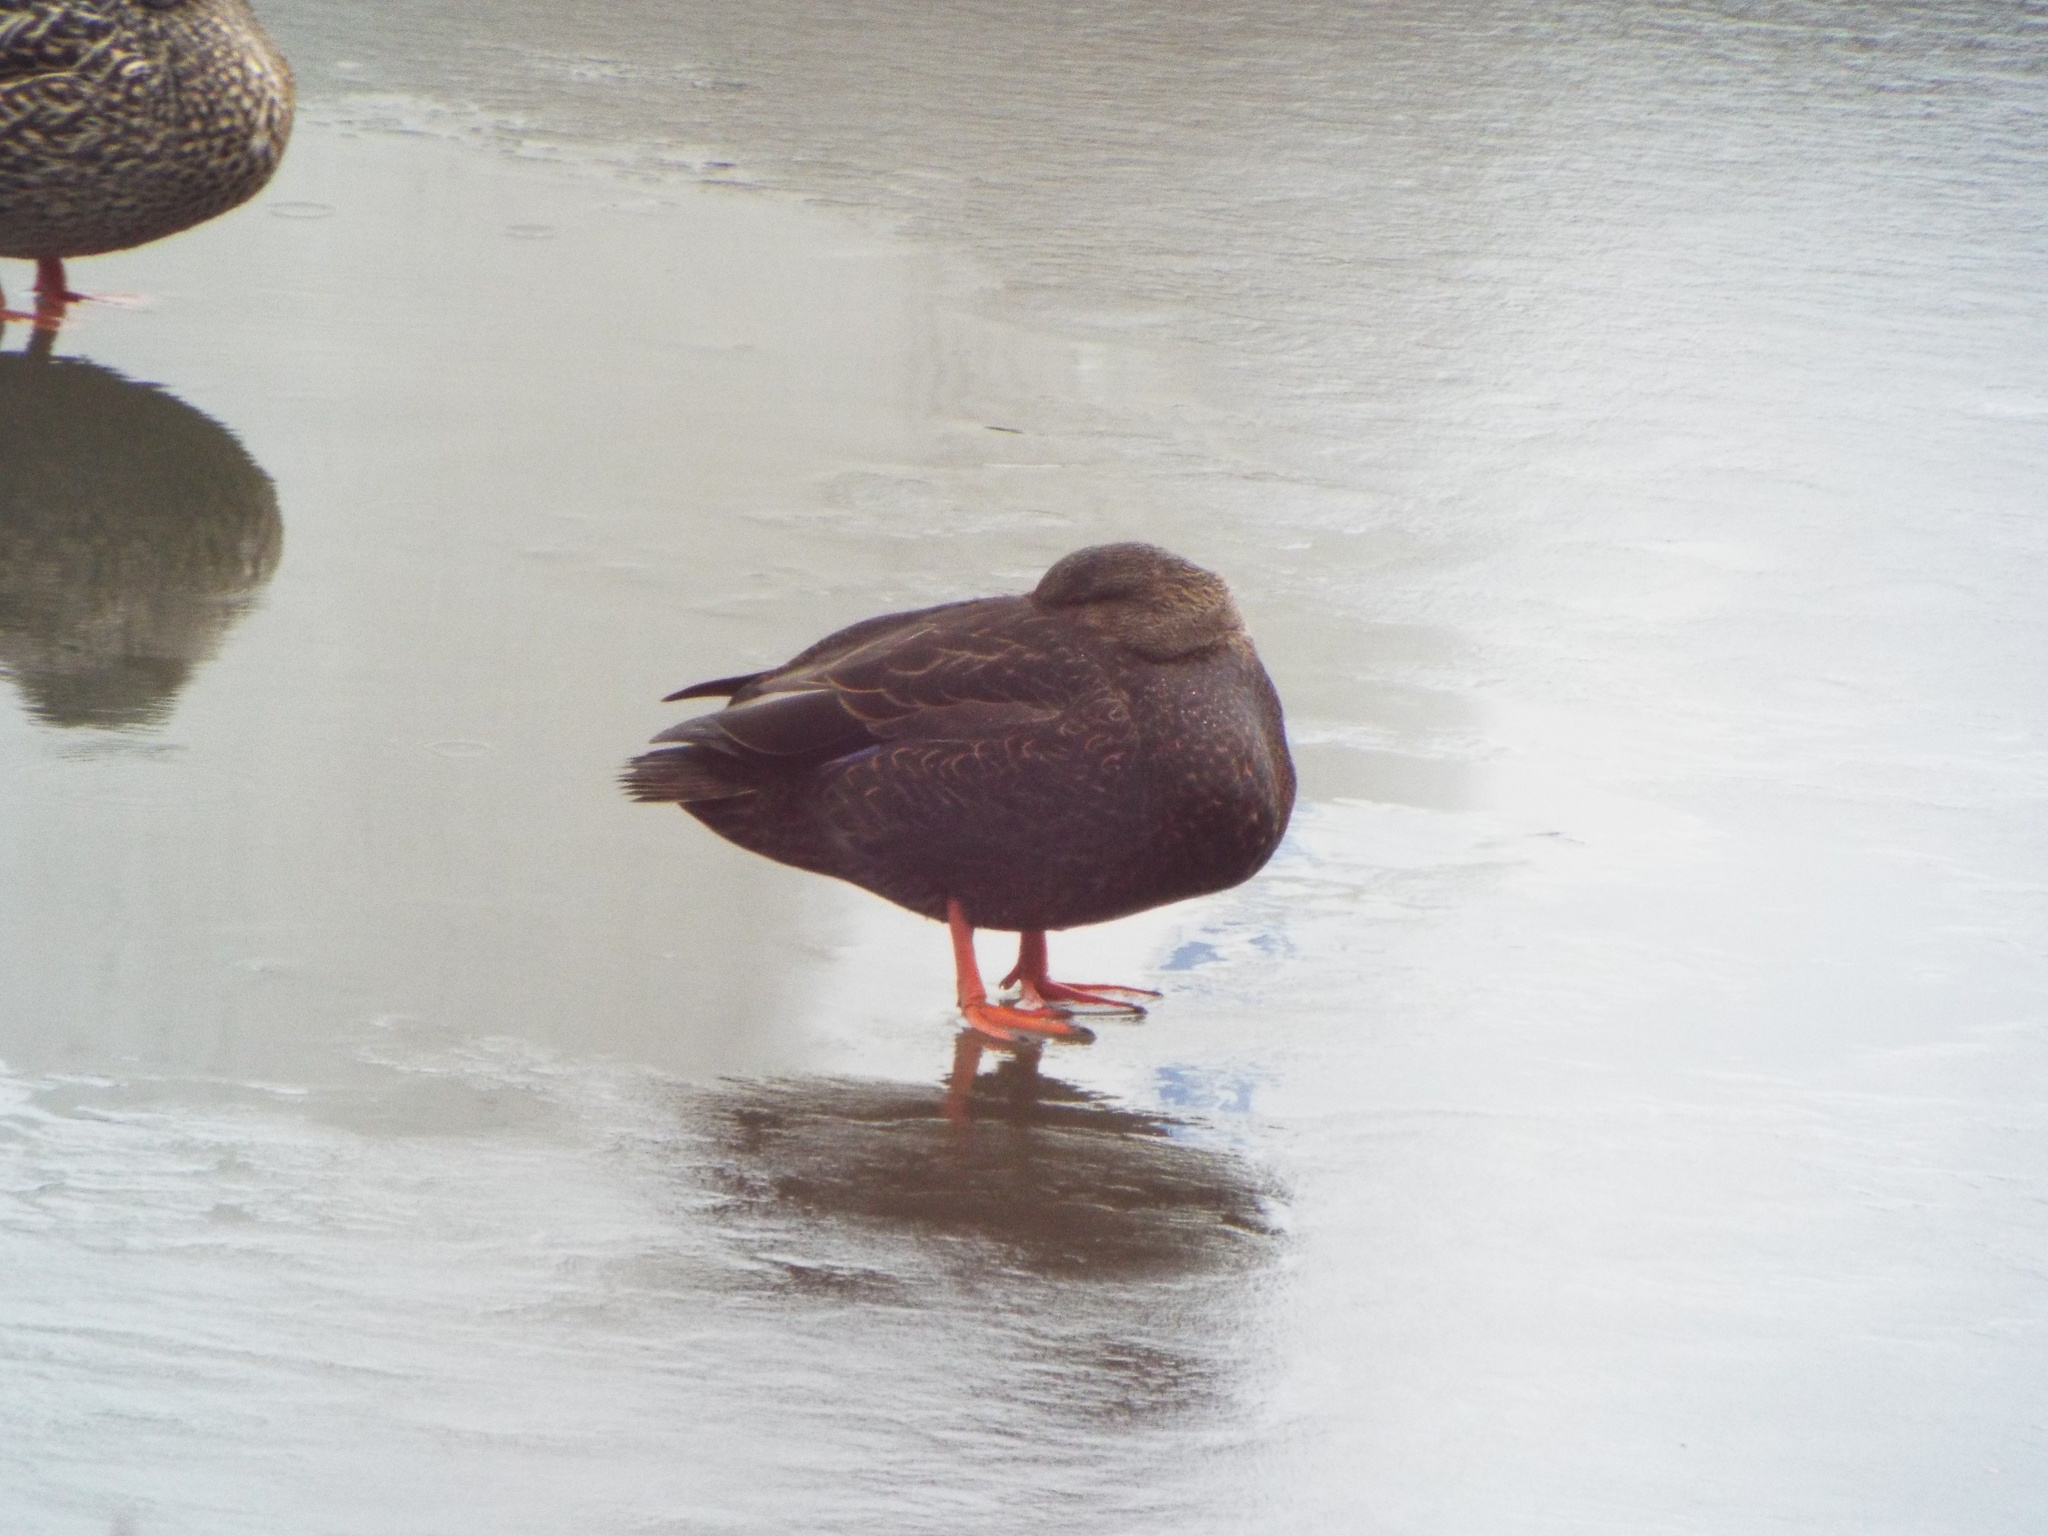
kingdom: Animalia
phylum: Chordata
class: Aves
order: Anseriformes
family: Anatidae
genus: Anas
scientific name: Anas rubripes
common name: American black duck
